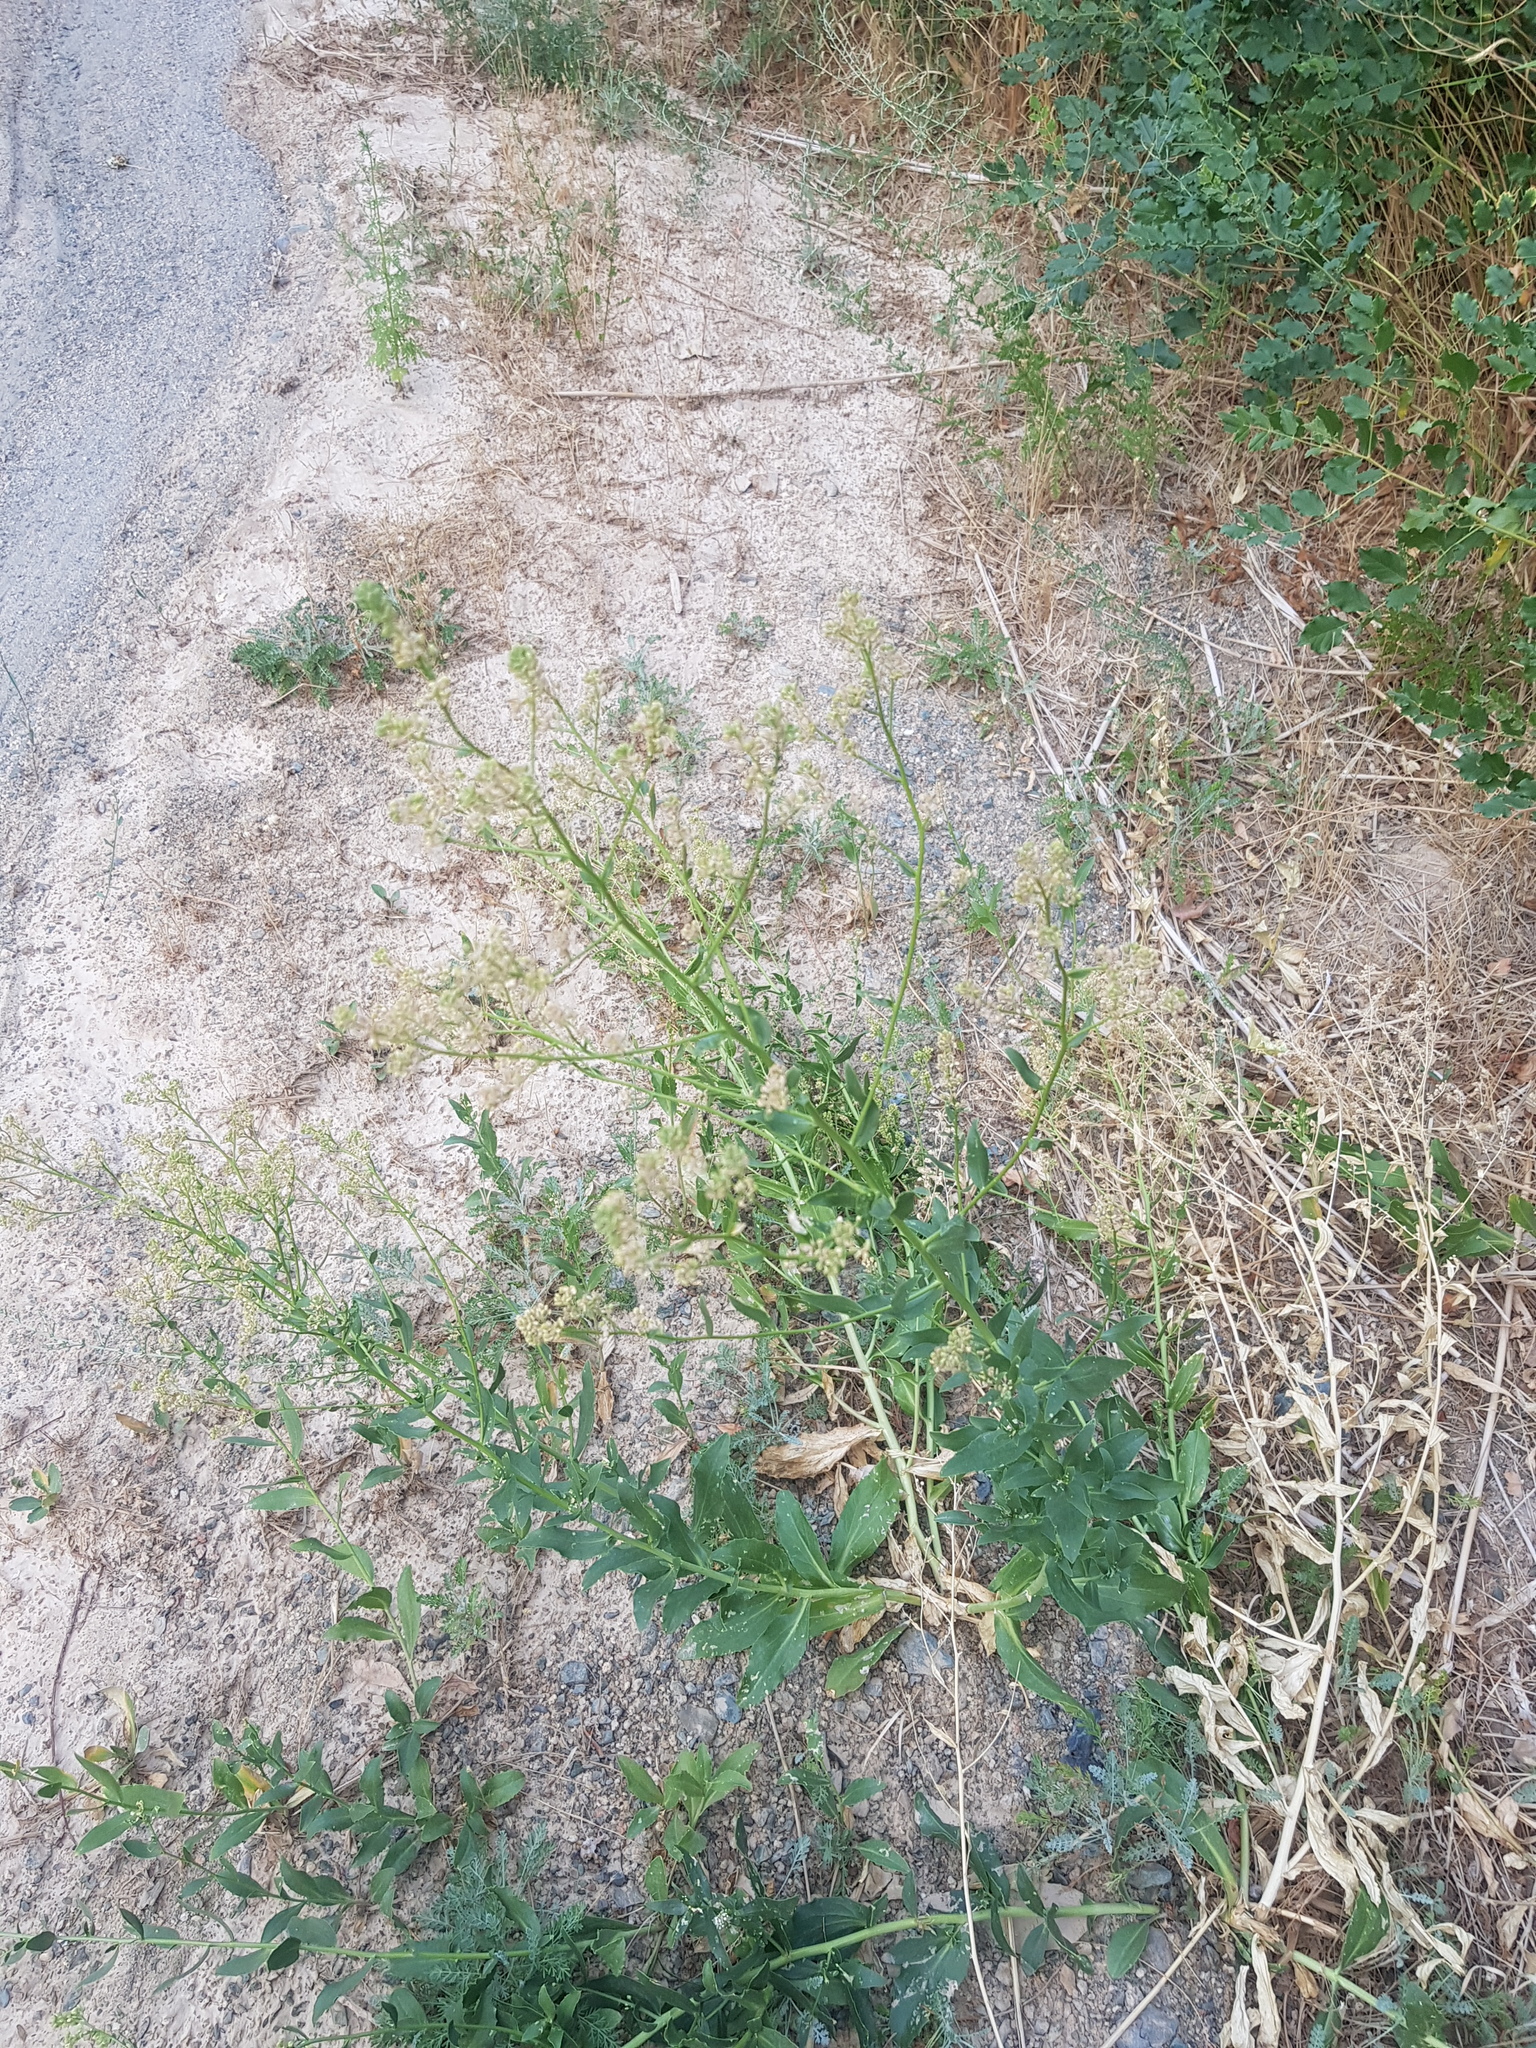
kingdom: Plantae
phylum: Tracheophyta
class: Magnoliopsida
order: Brassicales
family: Brassicaceae
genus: Lepidium
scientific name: Lepidium appelianum
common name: Hairy whitetop
